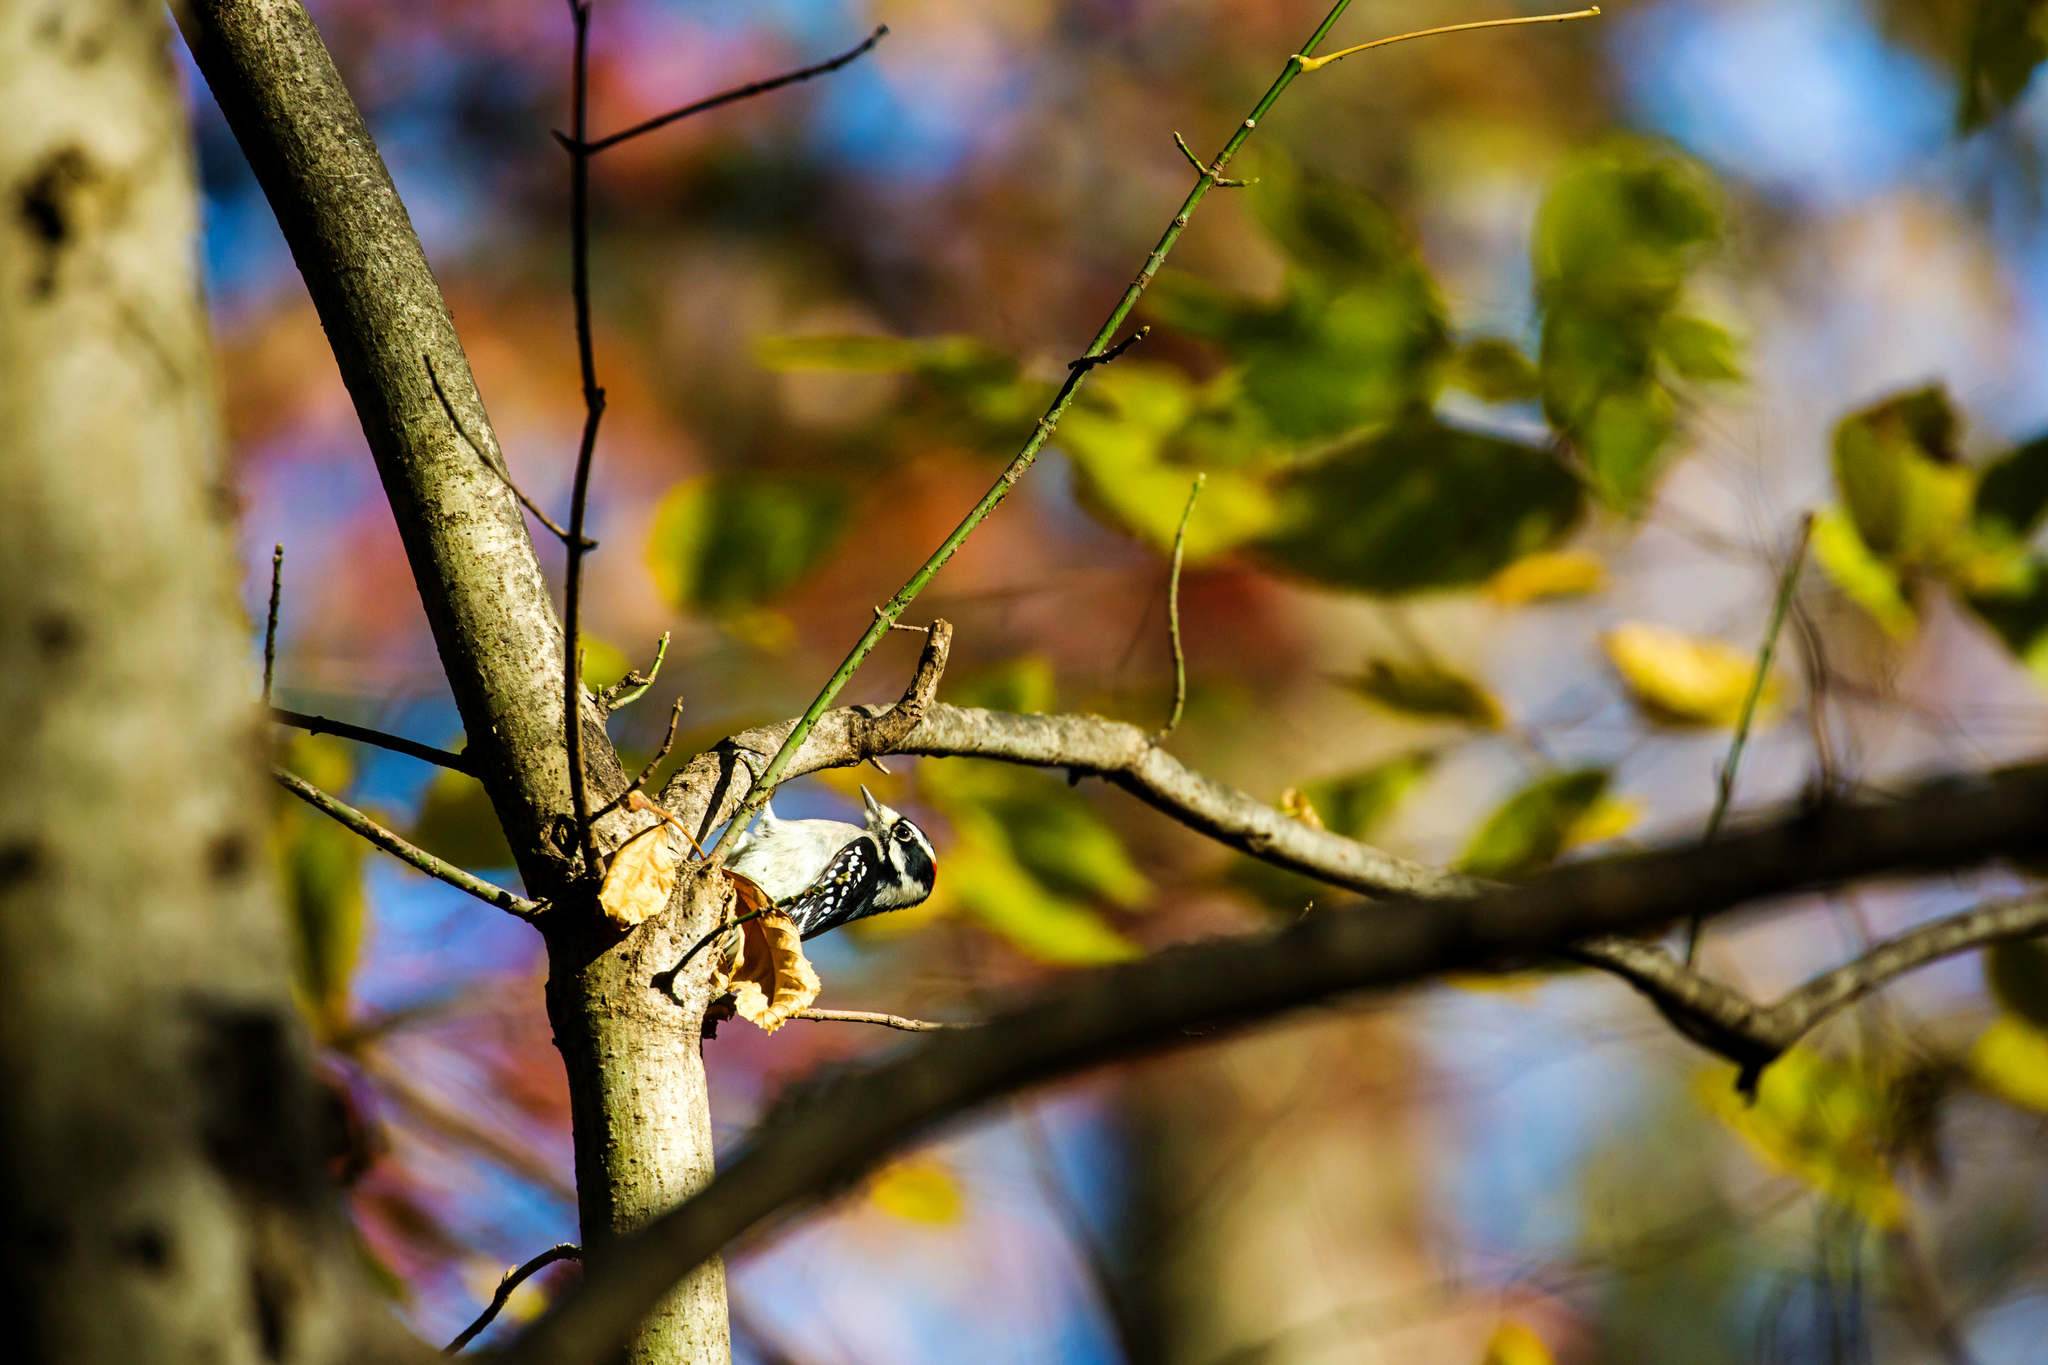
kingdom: Animalia
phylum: Chordata
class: Aves
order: Piciformes
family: Picidae
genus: Dryobates
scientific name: Dryobates pubescens
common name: Downy woodpecker
